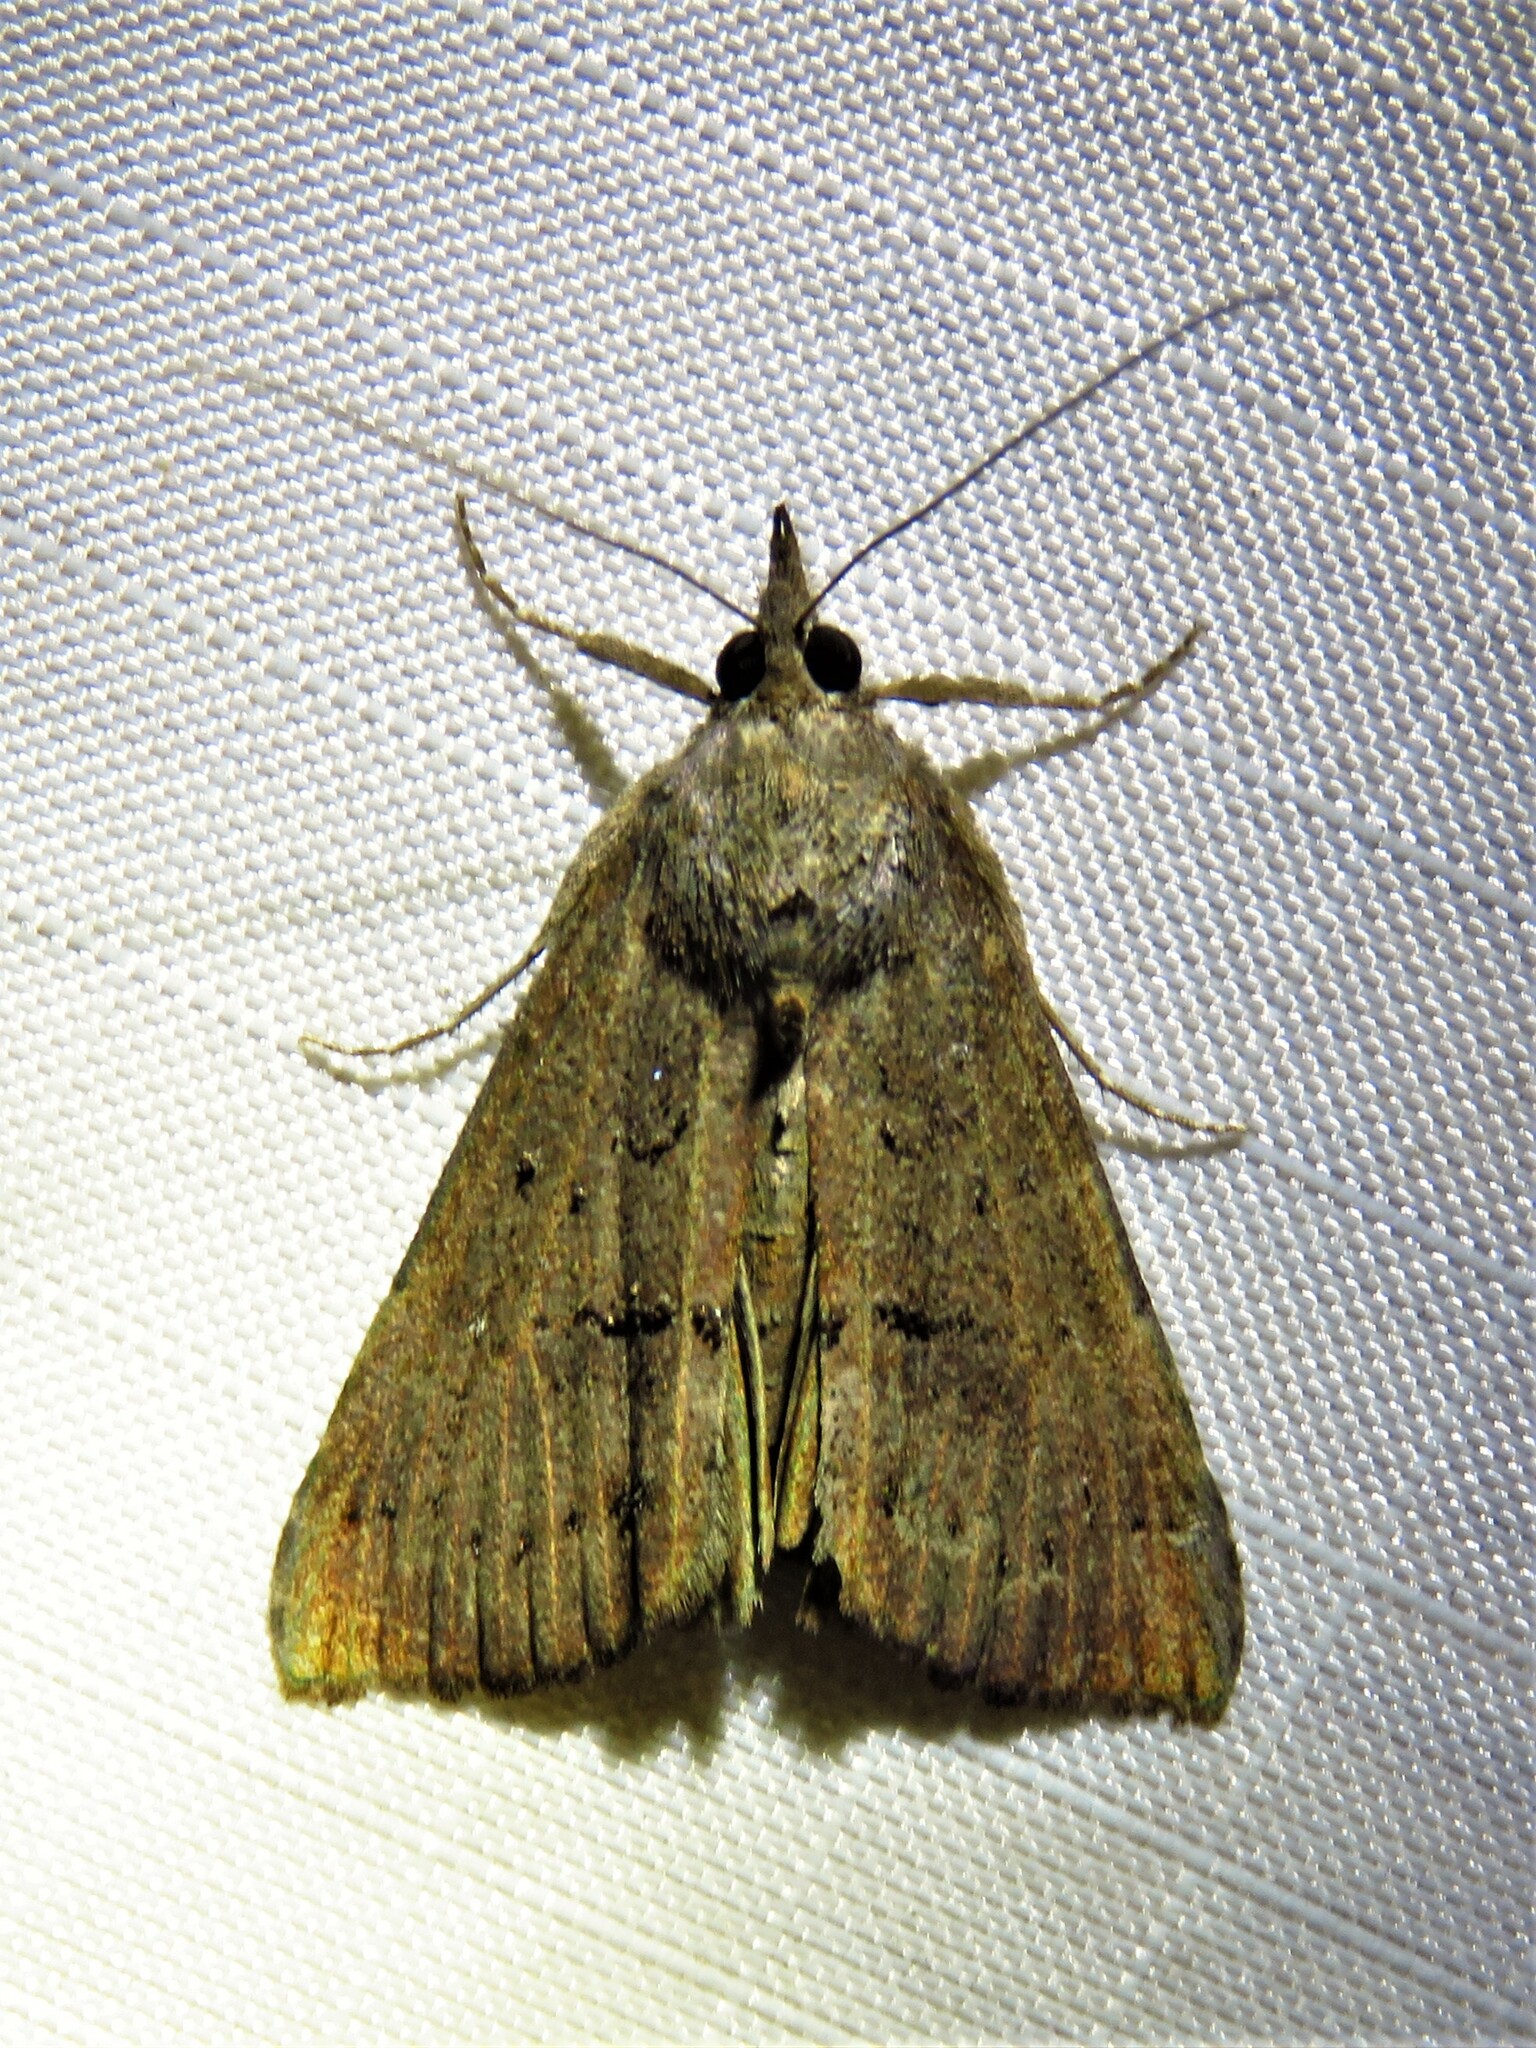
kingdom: Animalia
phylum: Arthropoda
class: Insecta
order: Lepidoptera
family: Erebidae
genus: Hypena
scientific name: Hypena scabra
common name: Green cloverworm
